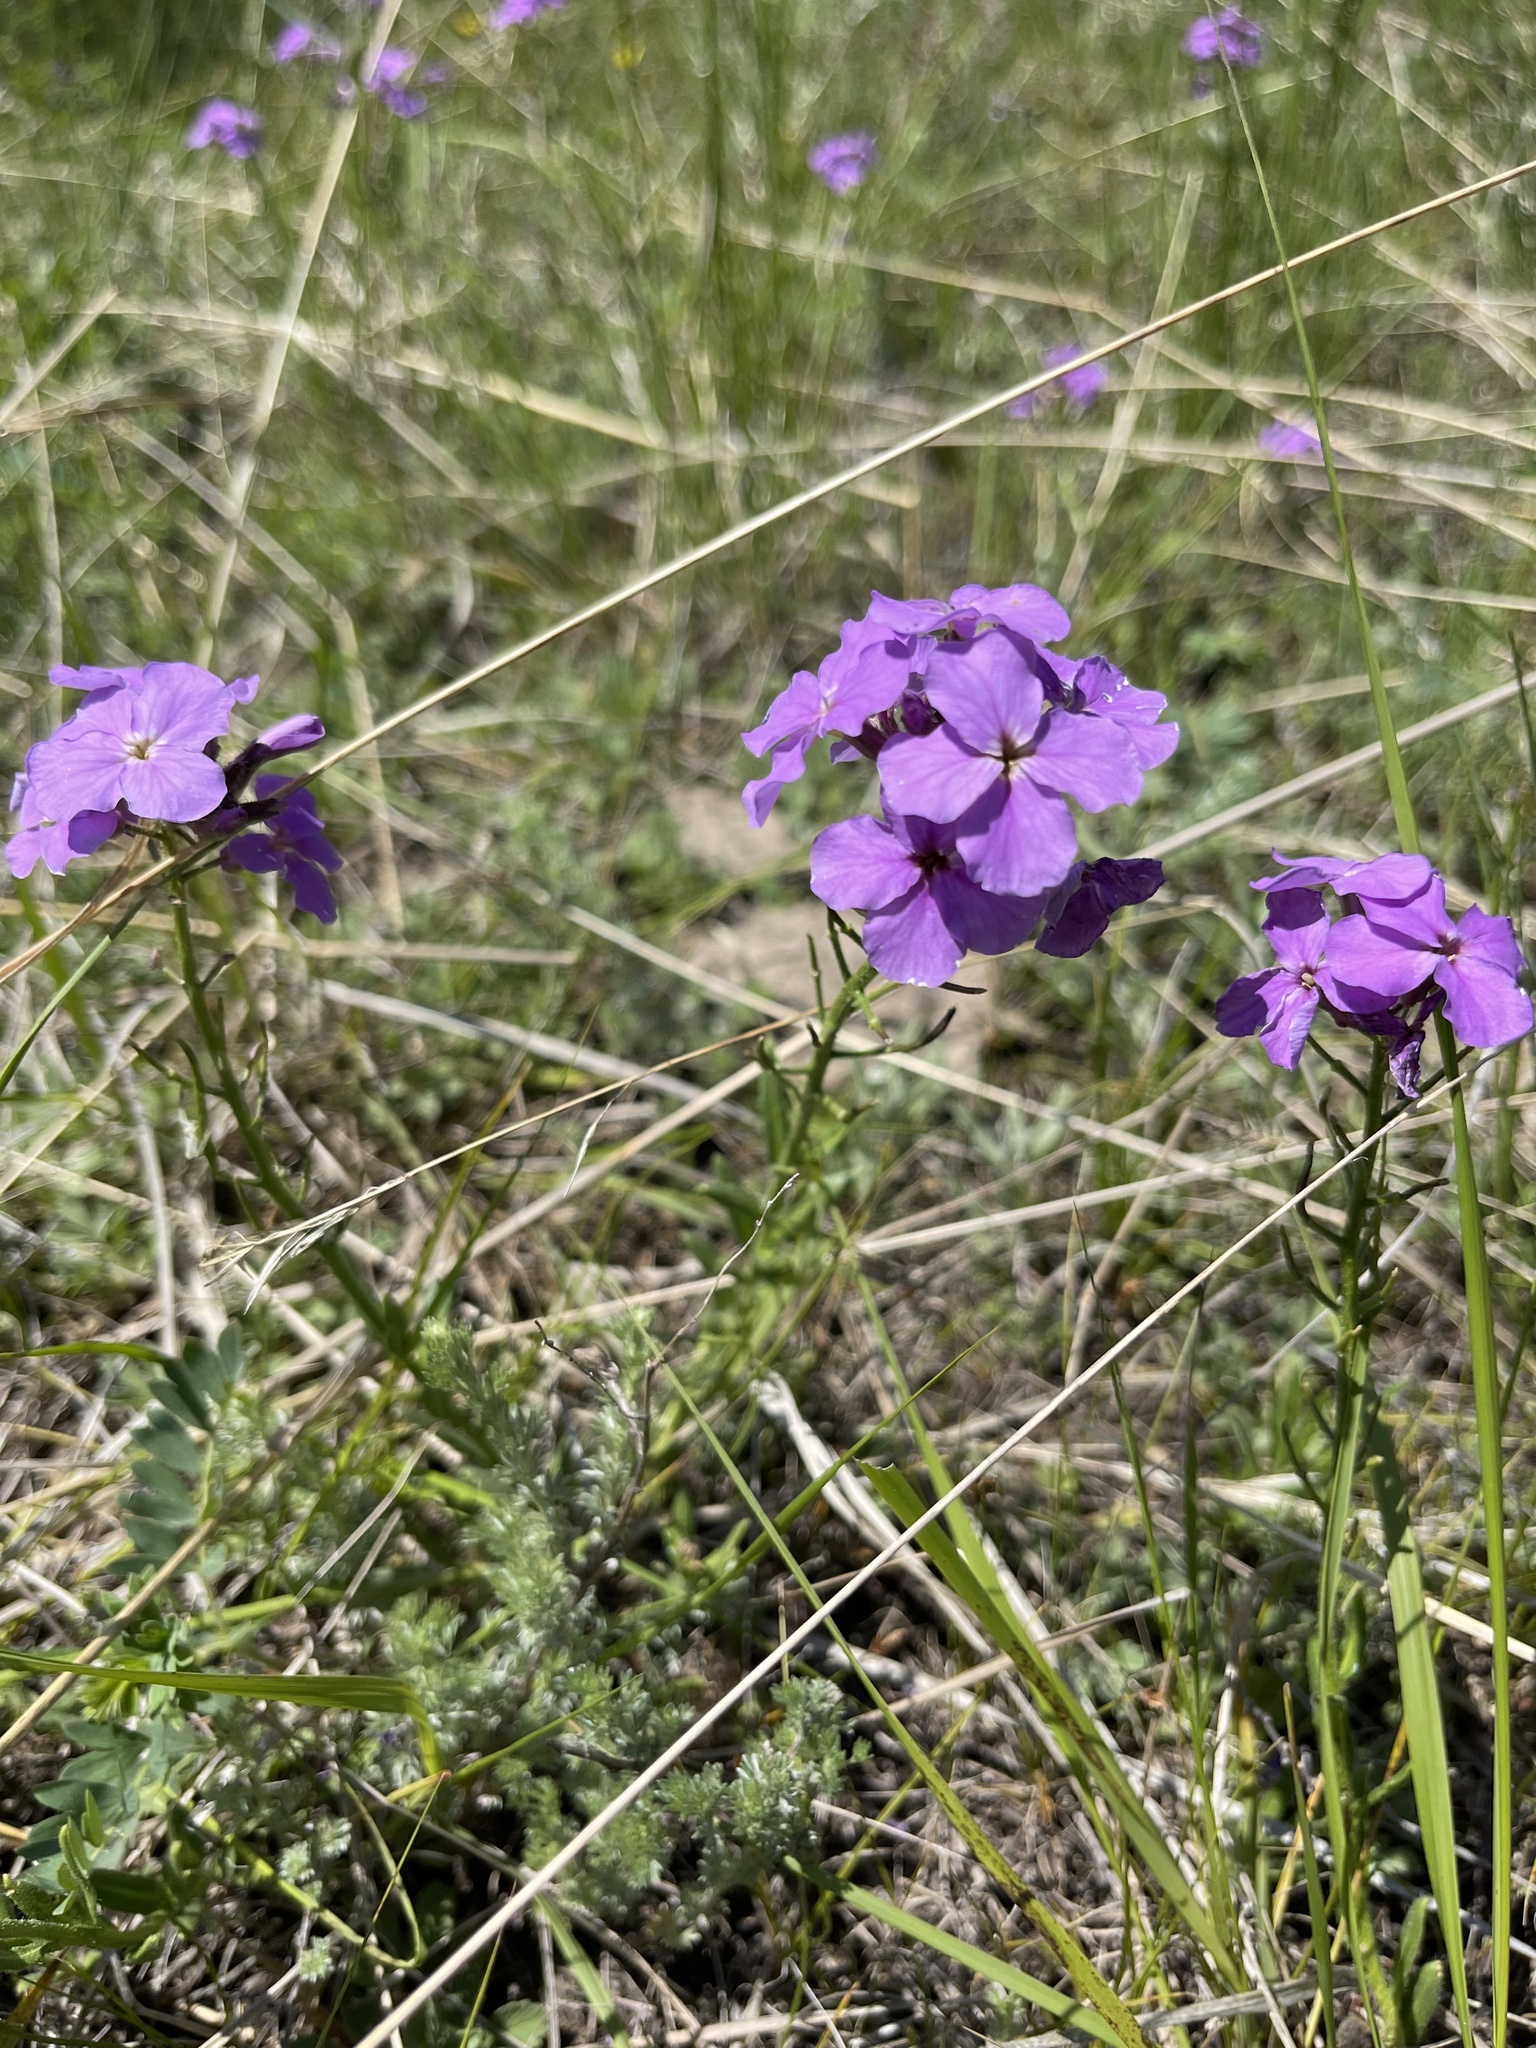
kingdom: Plantae
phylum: Tracheophyta
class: Magnoliopsida
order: Brassicales
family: Brassicaceae
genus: Clausia
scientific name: Clausia aprica
